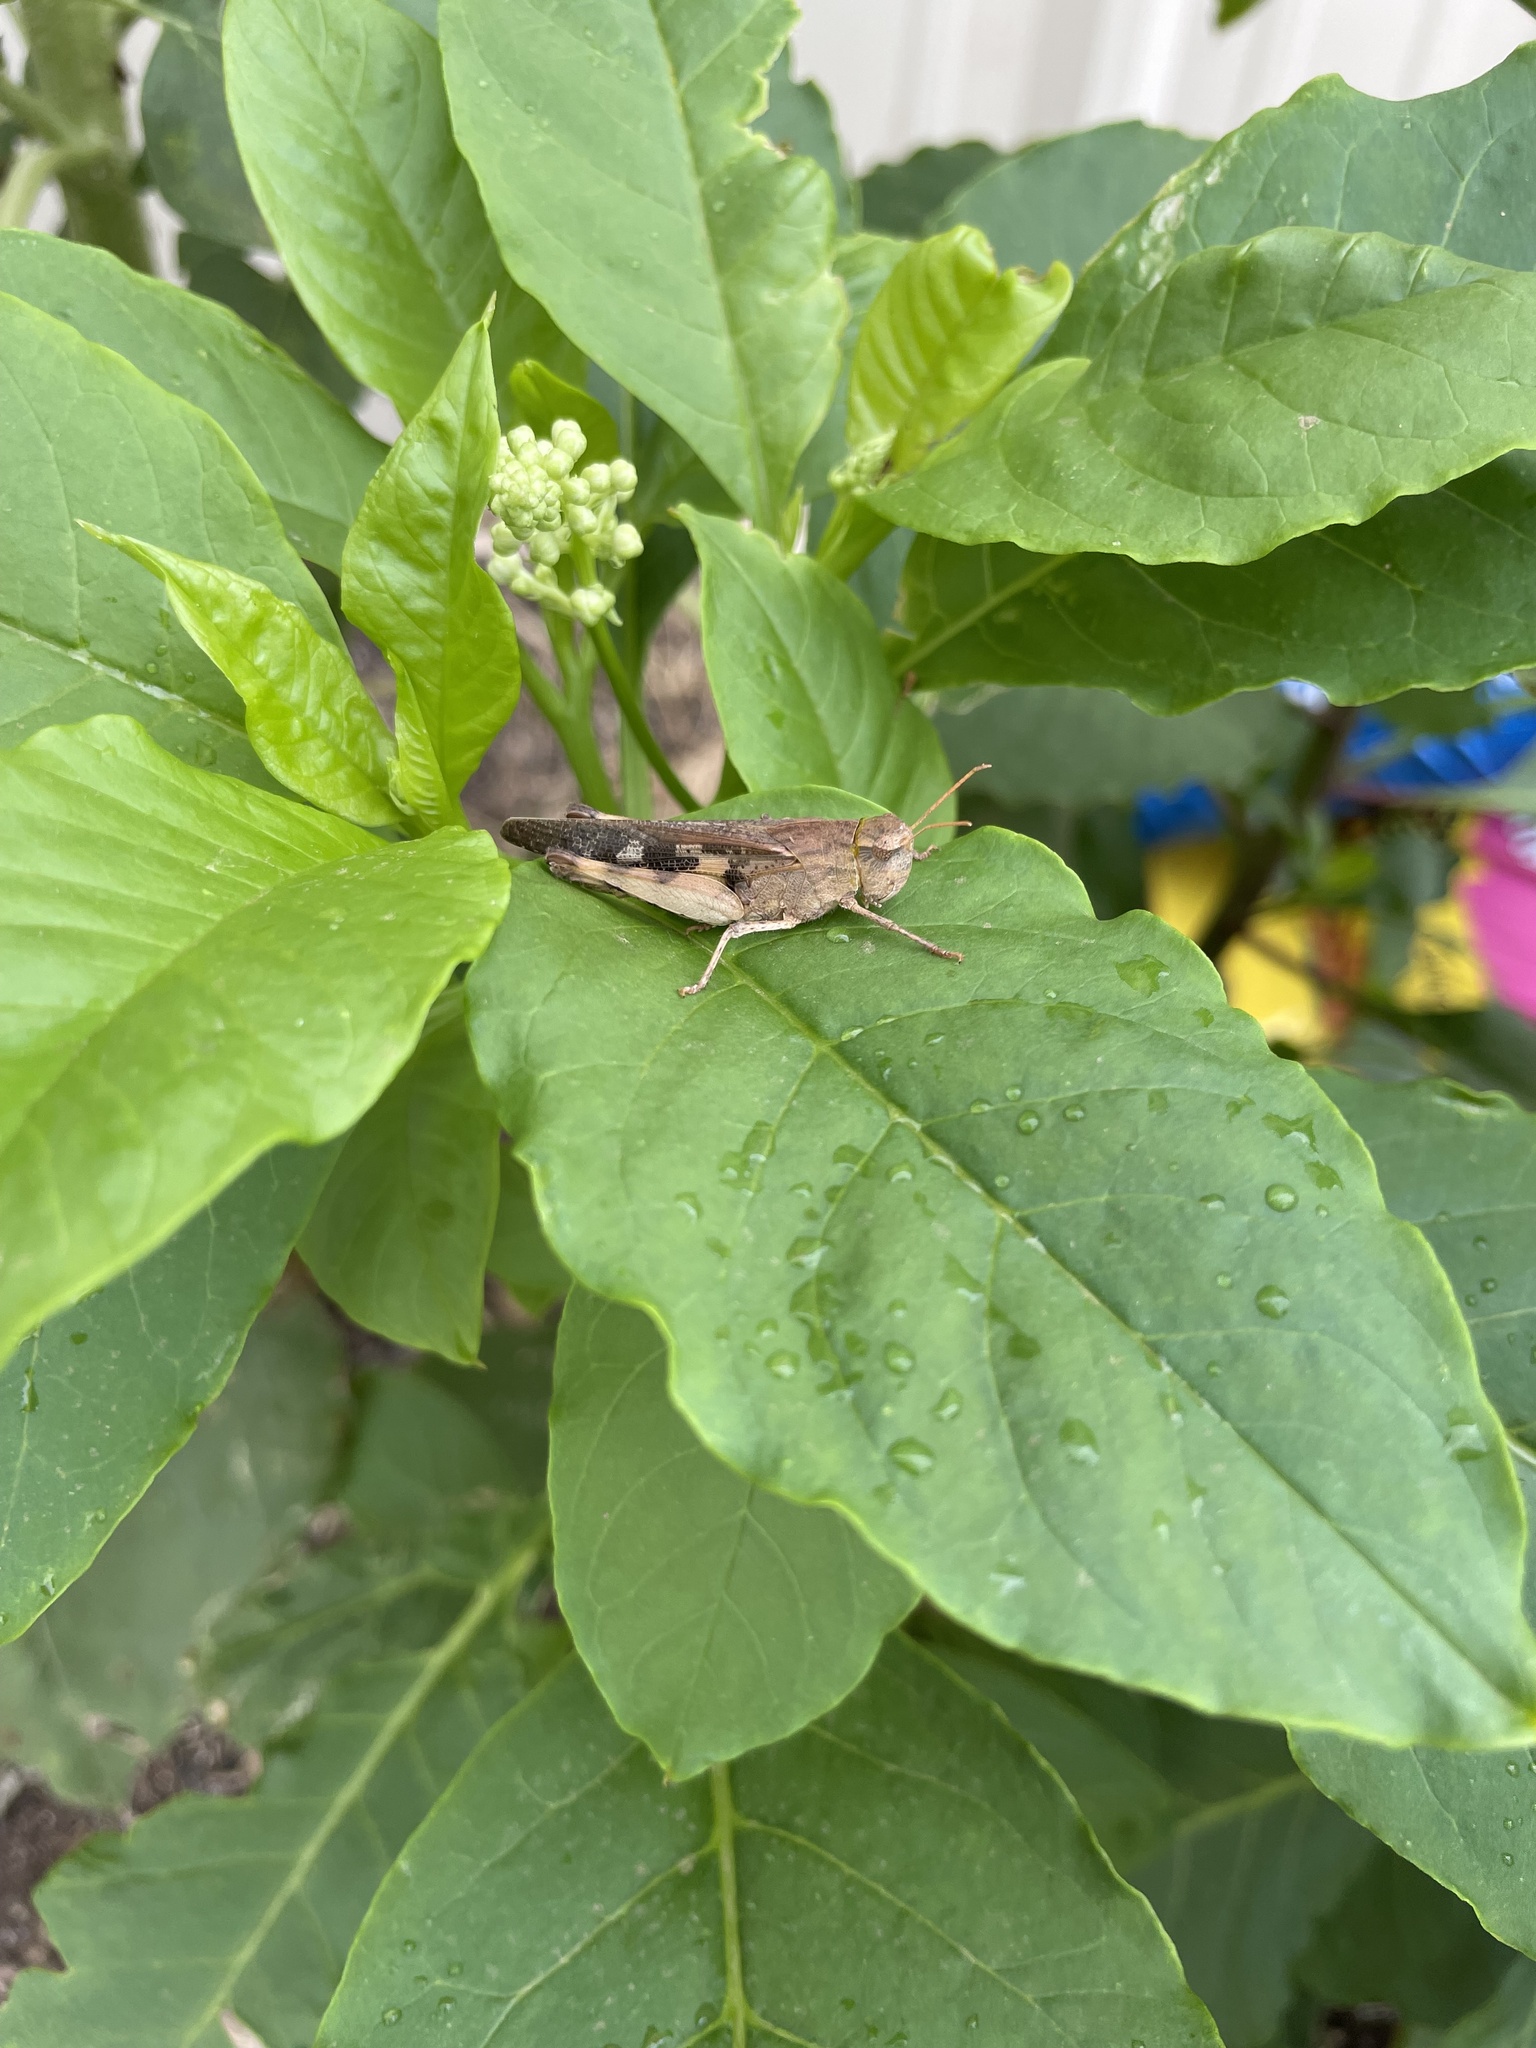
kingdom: Animalia
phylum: Arthropoda
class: Insecta
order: Orthoptera
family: Acrididae
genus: Chortophaga
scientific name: Chortophaga viridifasciata
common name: Green-striped grasshopper
